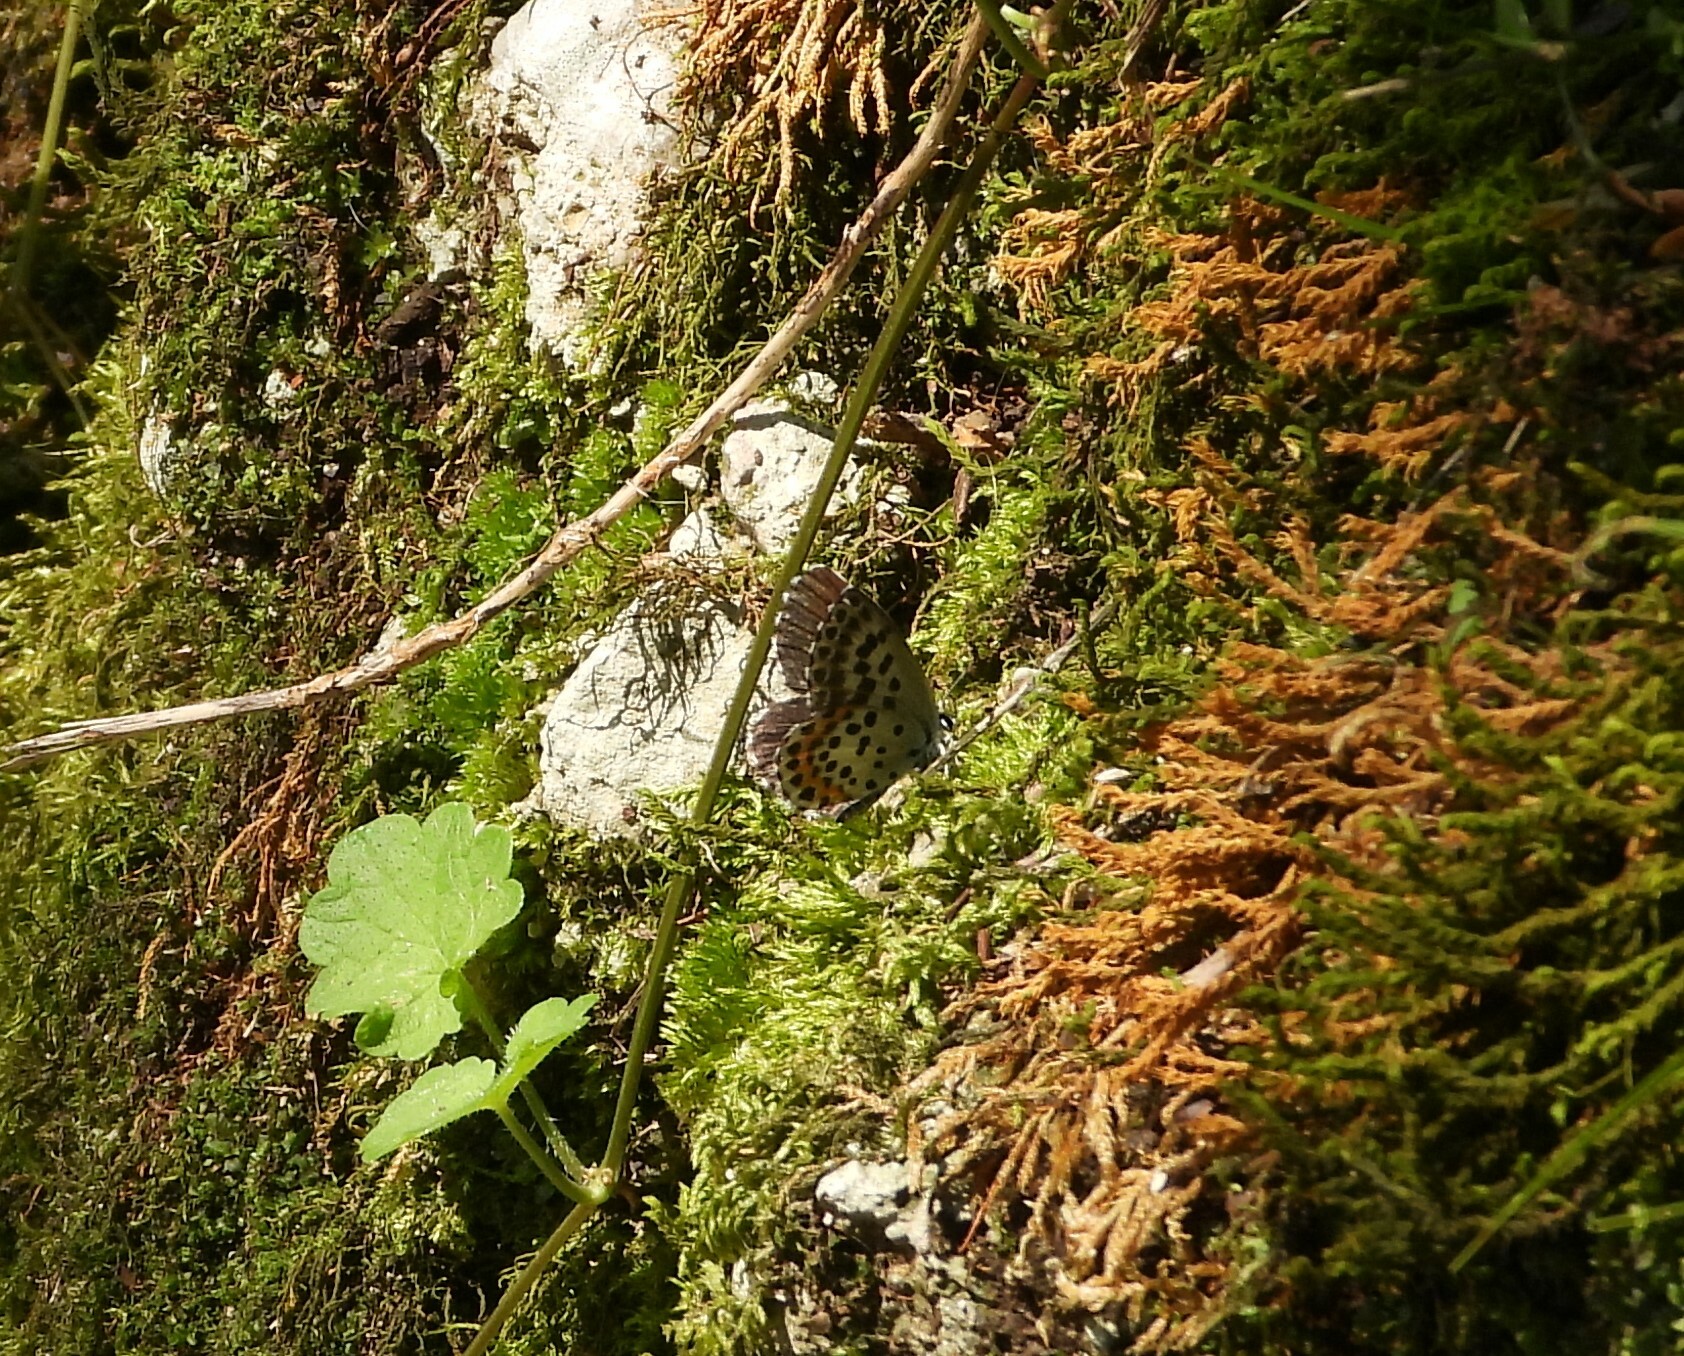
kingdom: Animalia
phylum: Arthropoda
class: Insecta
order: Lepidoptera
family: Lycaenidae
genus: Scolitantides
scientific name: Scolitantides orion
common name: Chequered blue
